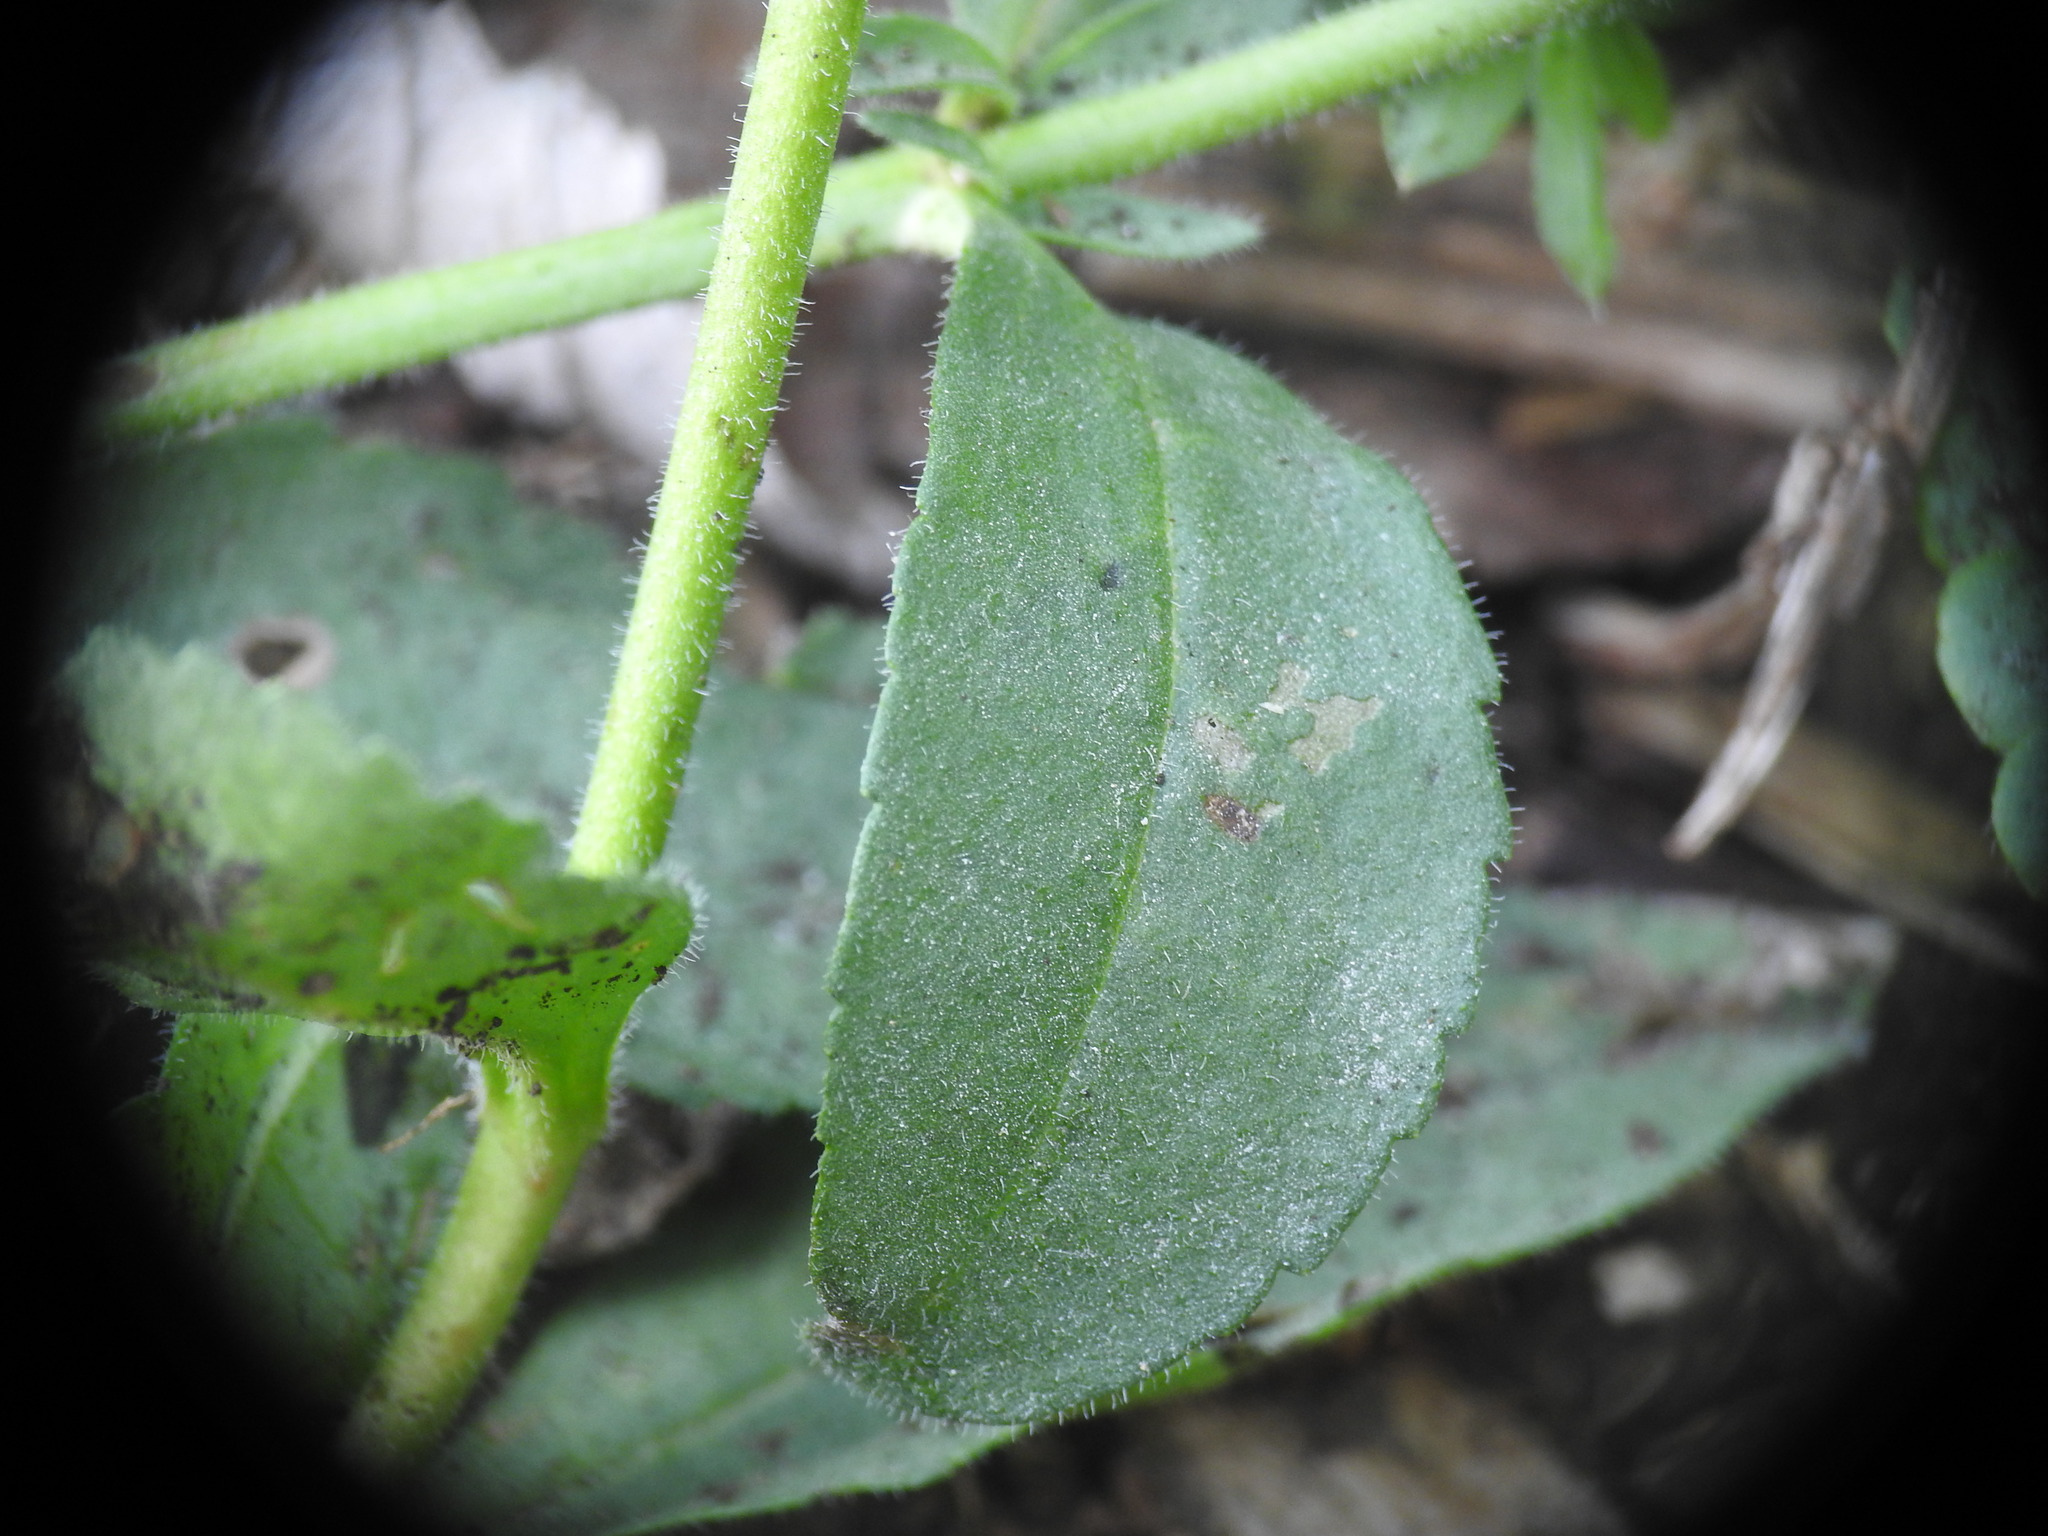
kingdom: Plantae
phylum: Tracheophyta
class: Magnoliopsida
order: Lamiales
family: Plantaginaceae
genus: Veronica
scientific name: Veronica barrelieri
